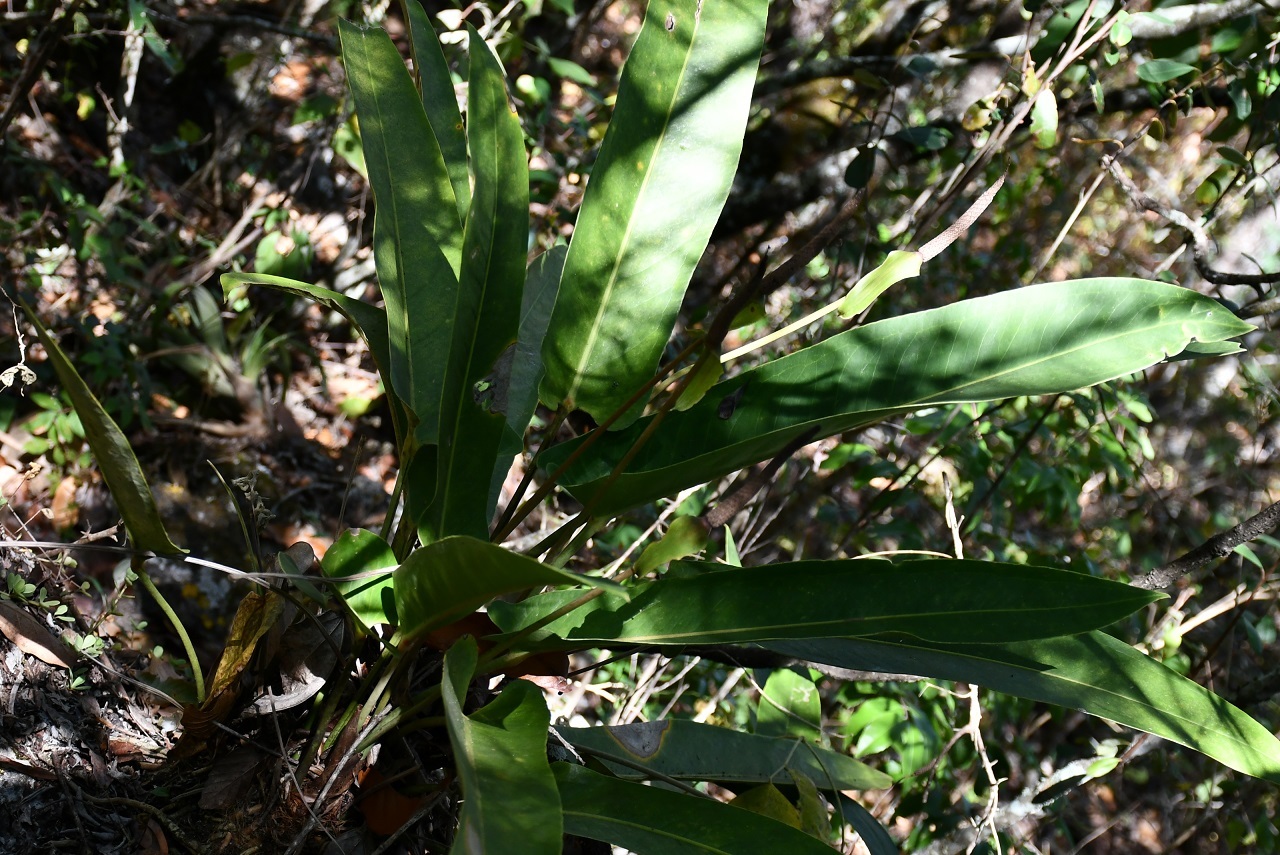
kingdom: Plantae
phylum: Tracheophyta
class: Liliopsida
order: Alismatales
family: Araceae
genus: Anthurium
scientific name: Anthurium seleri
